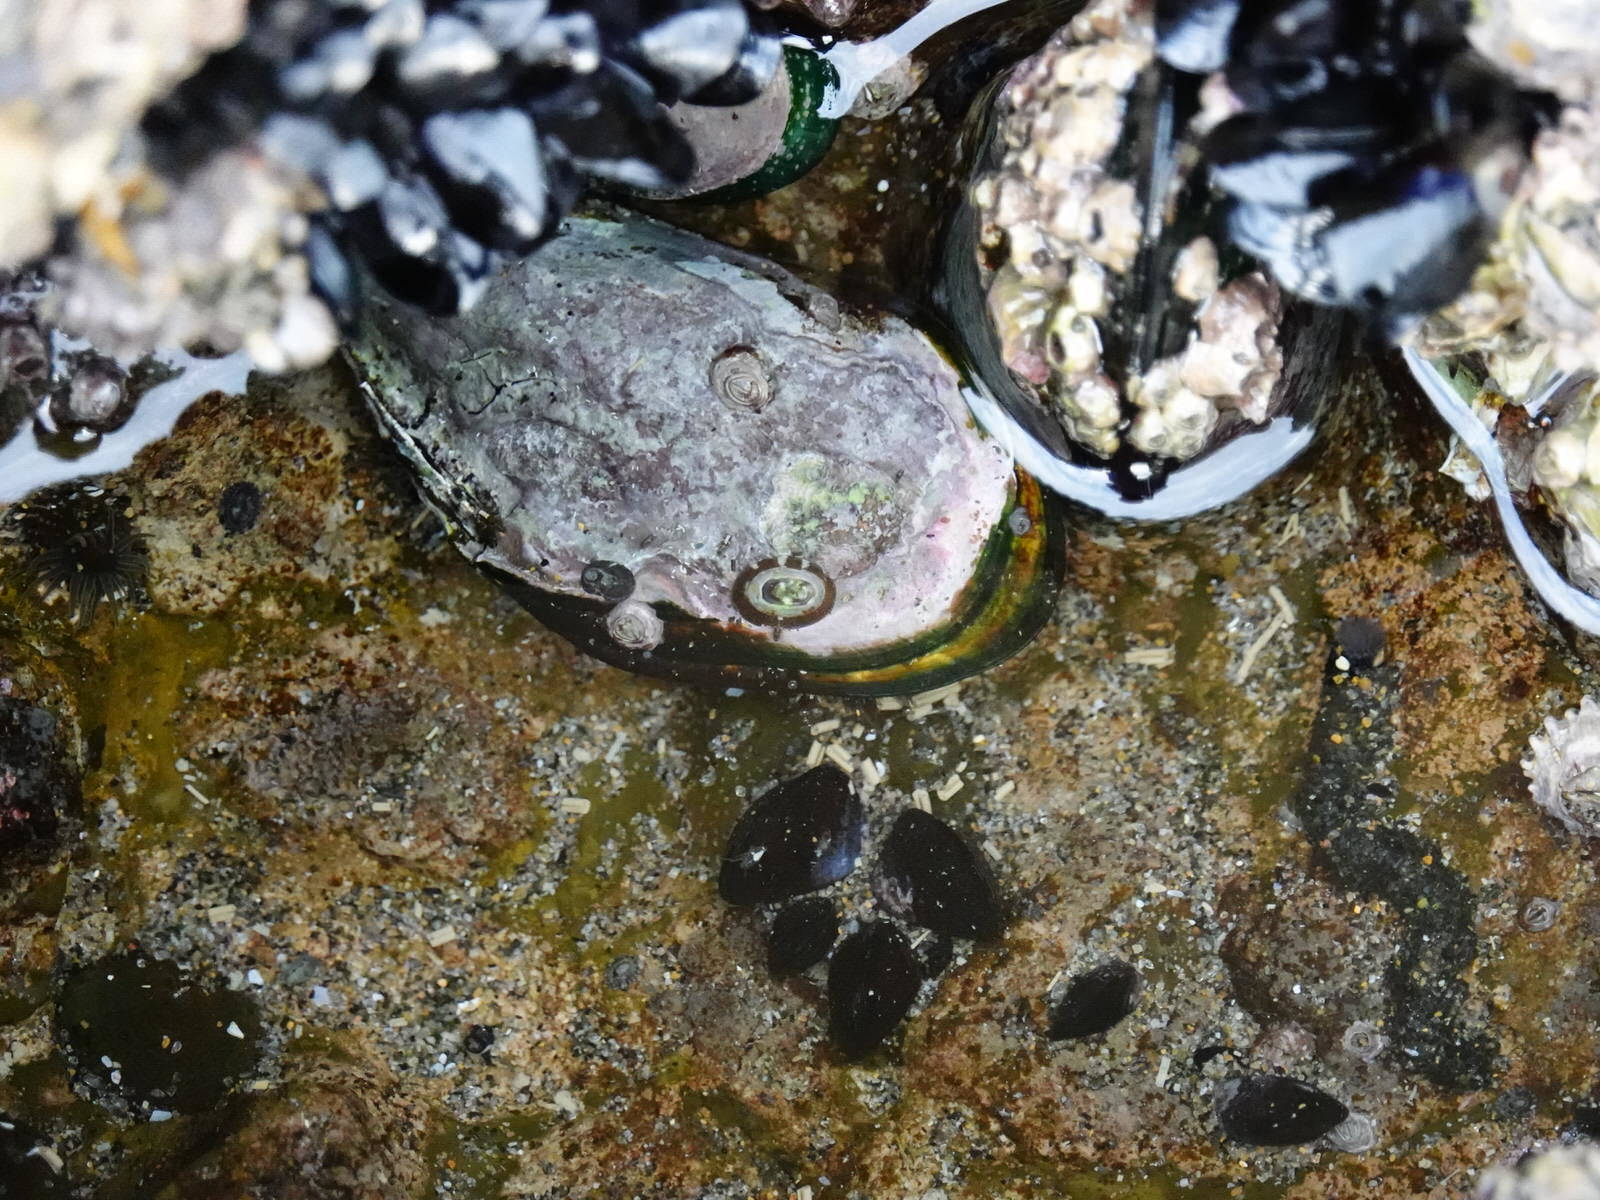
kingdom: Animalia
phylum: Mollusca
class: Gastropoda
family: Lottiidae
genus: Notoacmea
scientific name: Notoacmea parviconoidea
